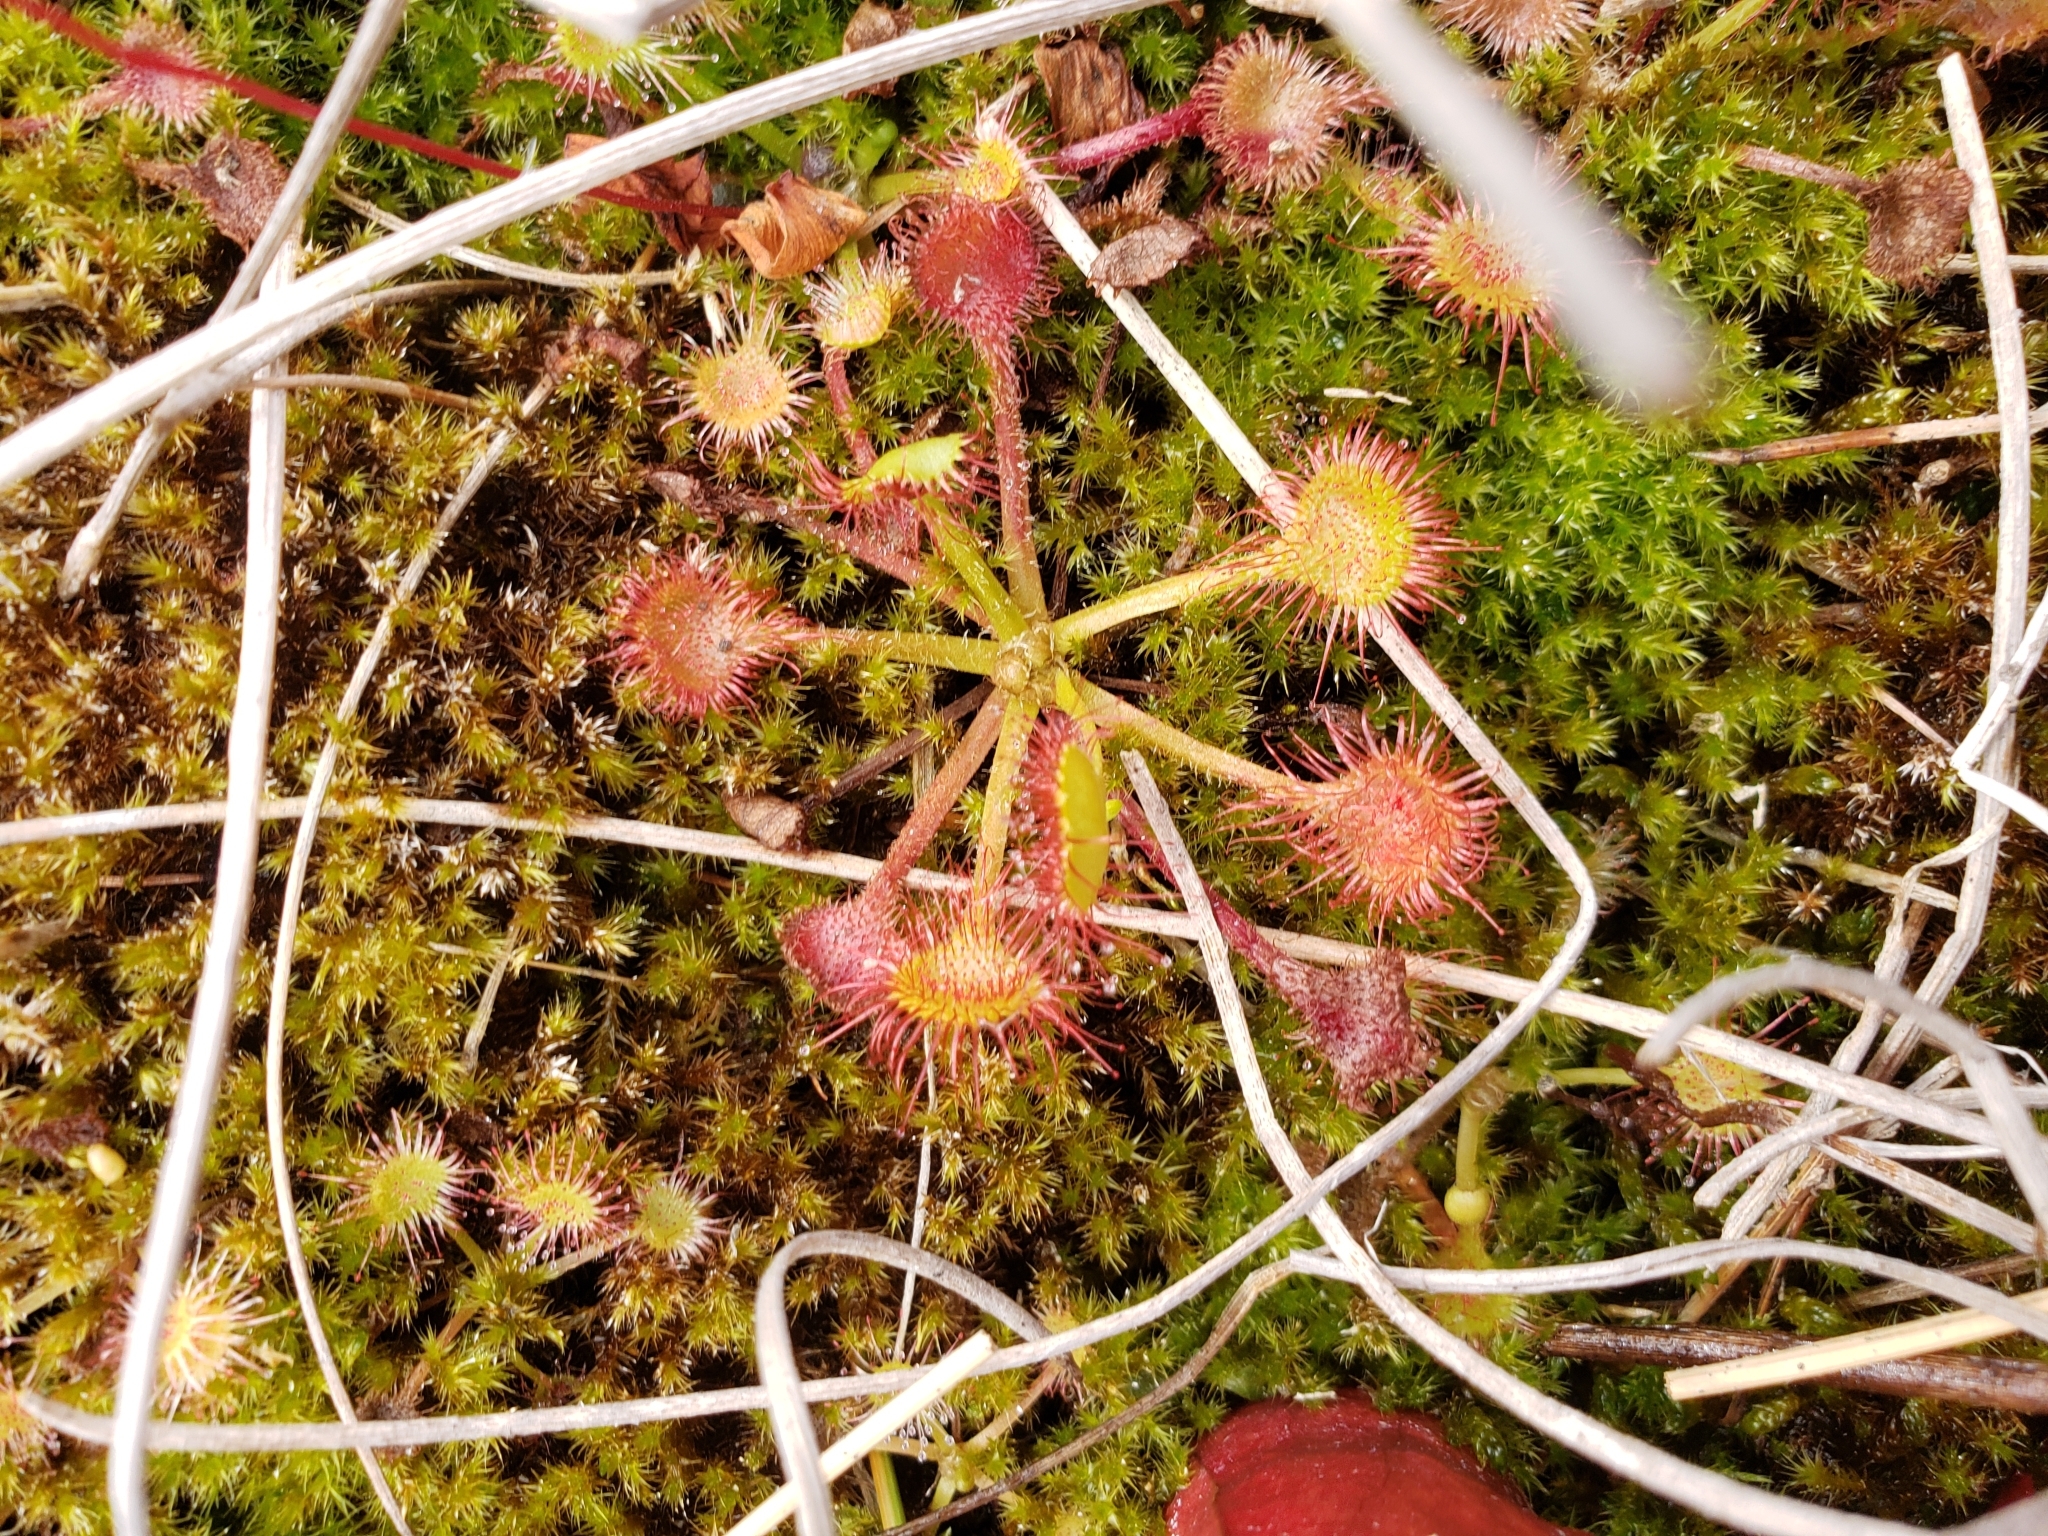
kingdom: Plantae
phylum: Tracheophyta
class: Magnoliopsida
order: Caryophyllales
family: Droseraceae
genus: Drosera
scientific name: Drosera rotundifolia
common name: Round-leaved sundew
